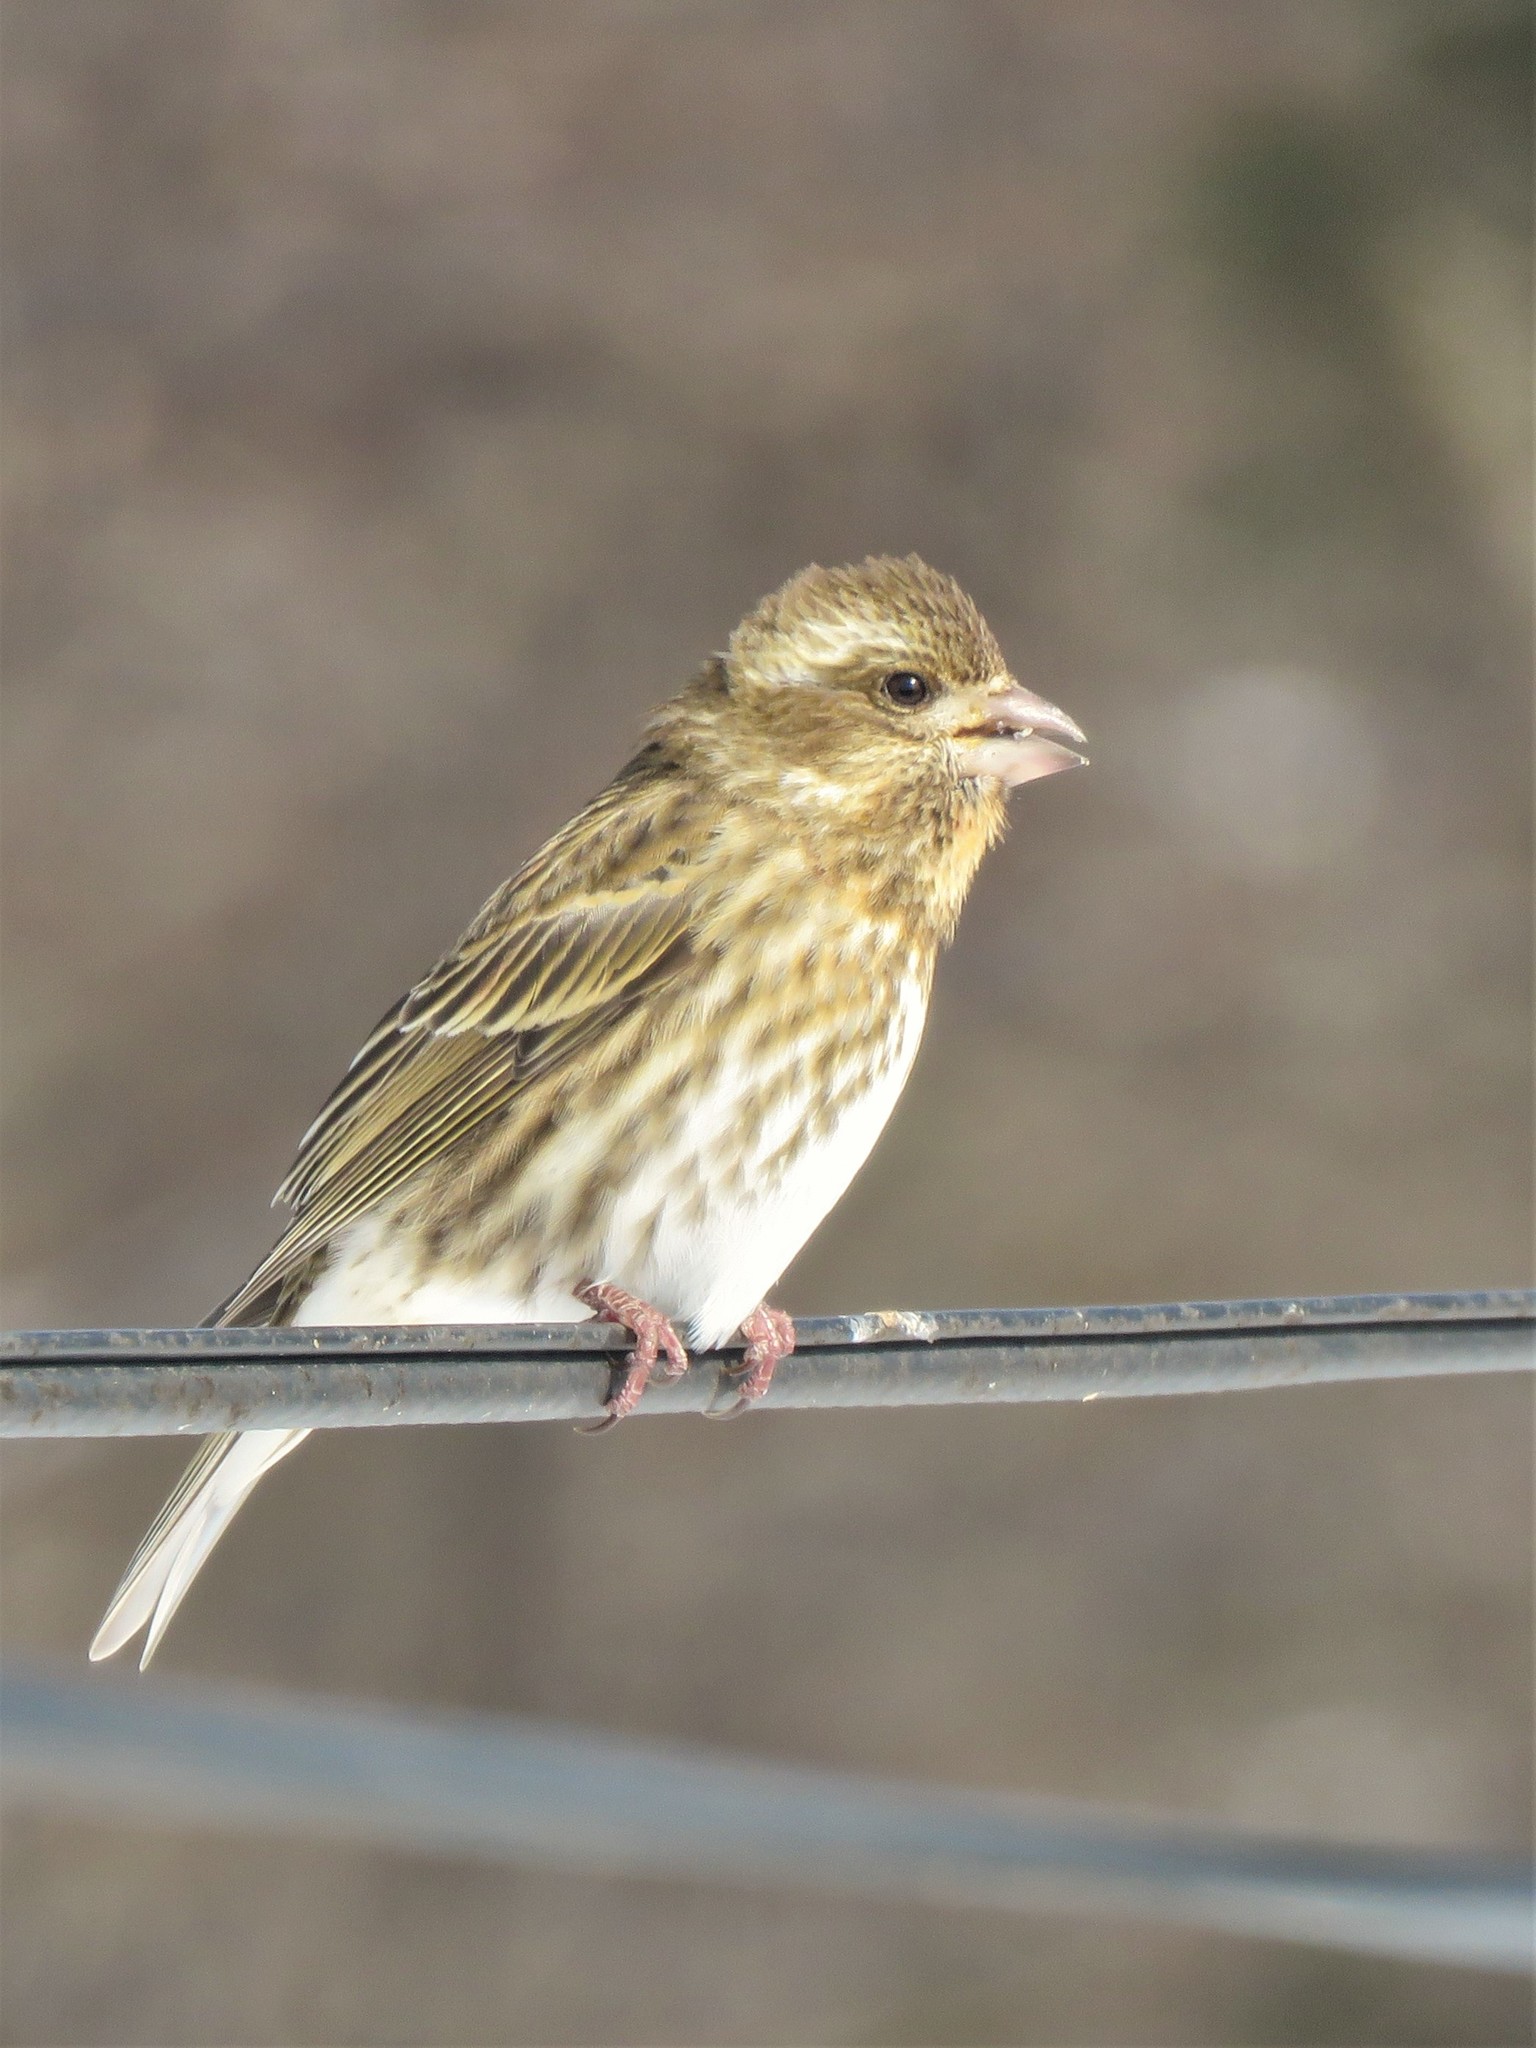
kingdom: Animalia
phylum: Chordata
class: Aves
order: Passeriformes
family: Fringillidae
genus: Haemorhous
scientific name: Haemorhous purpureus
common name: Purple finch
